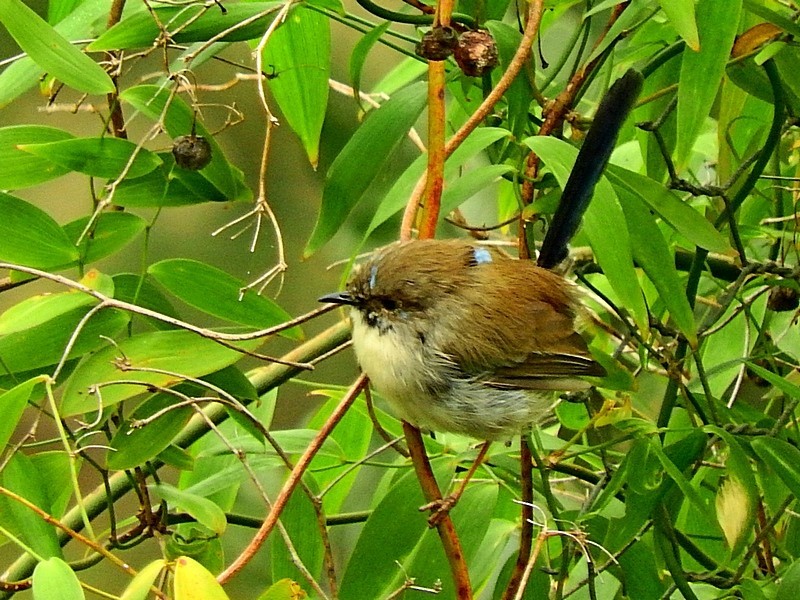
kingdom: Animalia
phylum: Chordata
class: Aves
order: Passeriformes
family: Maluridae
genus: Malurus
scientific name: Malurus cyaneus
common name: Superb fairywren
